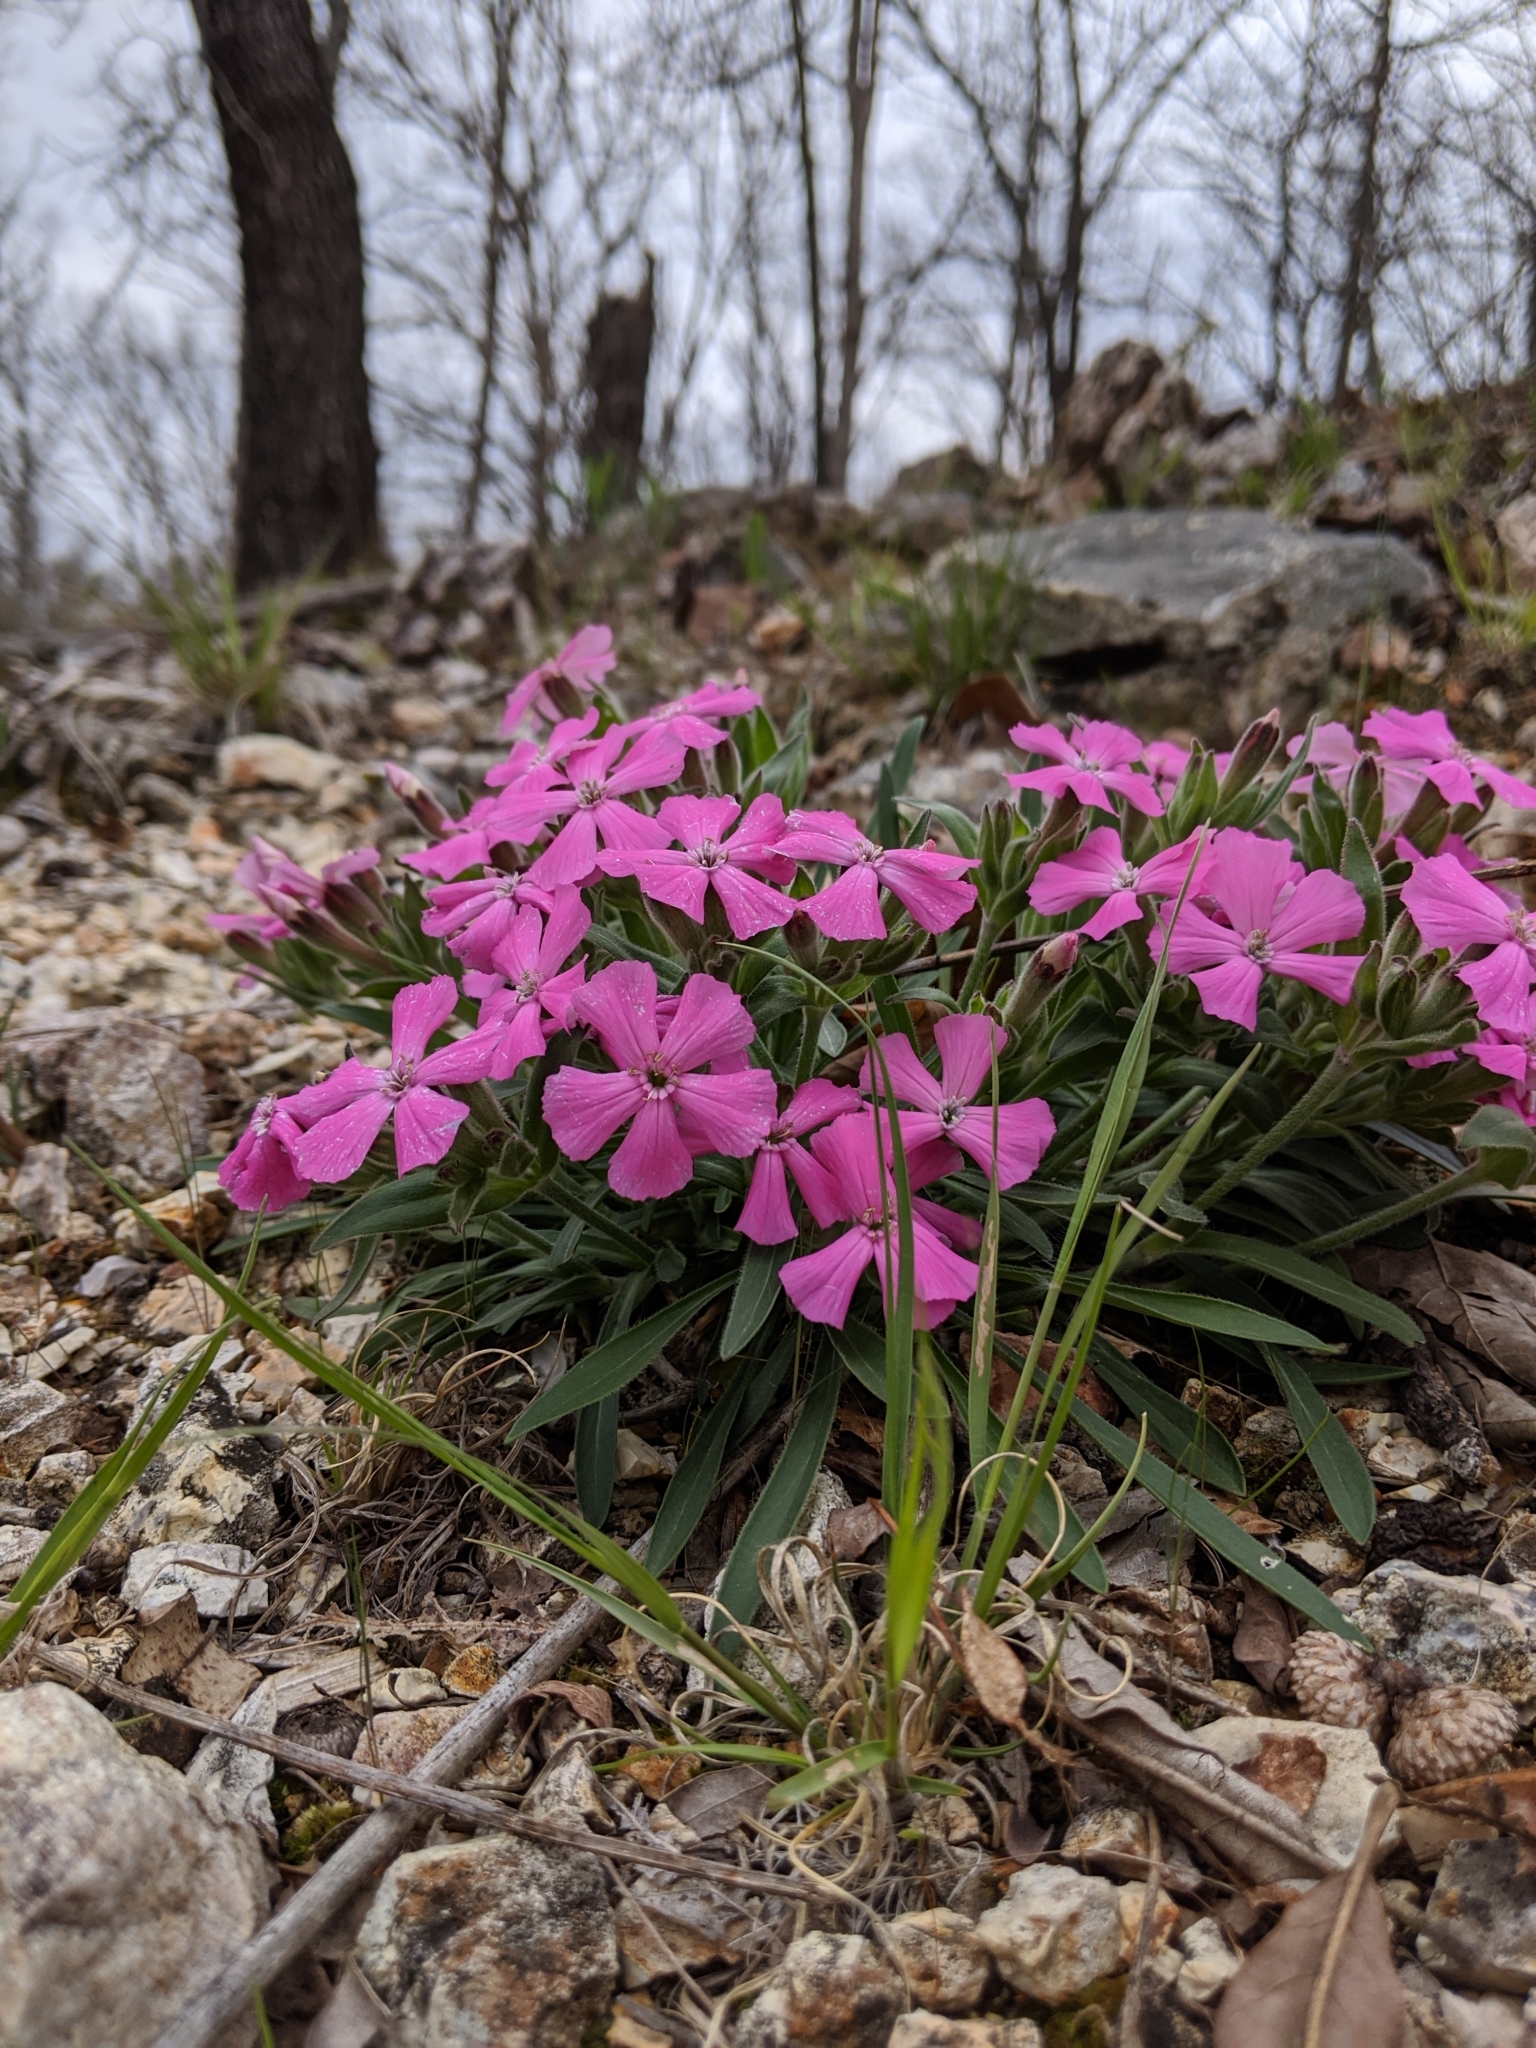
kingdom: Plantae
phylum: Tracheophyta
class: Magnoliopsida
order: Caryophyllales
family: Caryophyllaceae
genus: Silene
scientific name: Silene caroliniana
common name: Sticky catchfly
